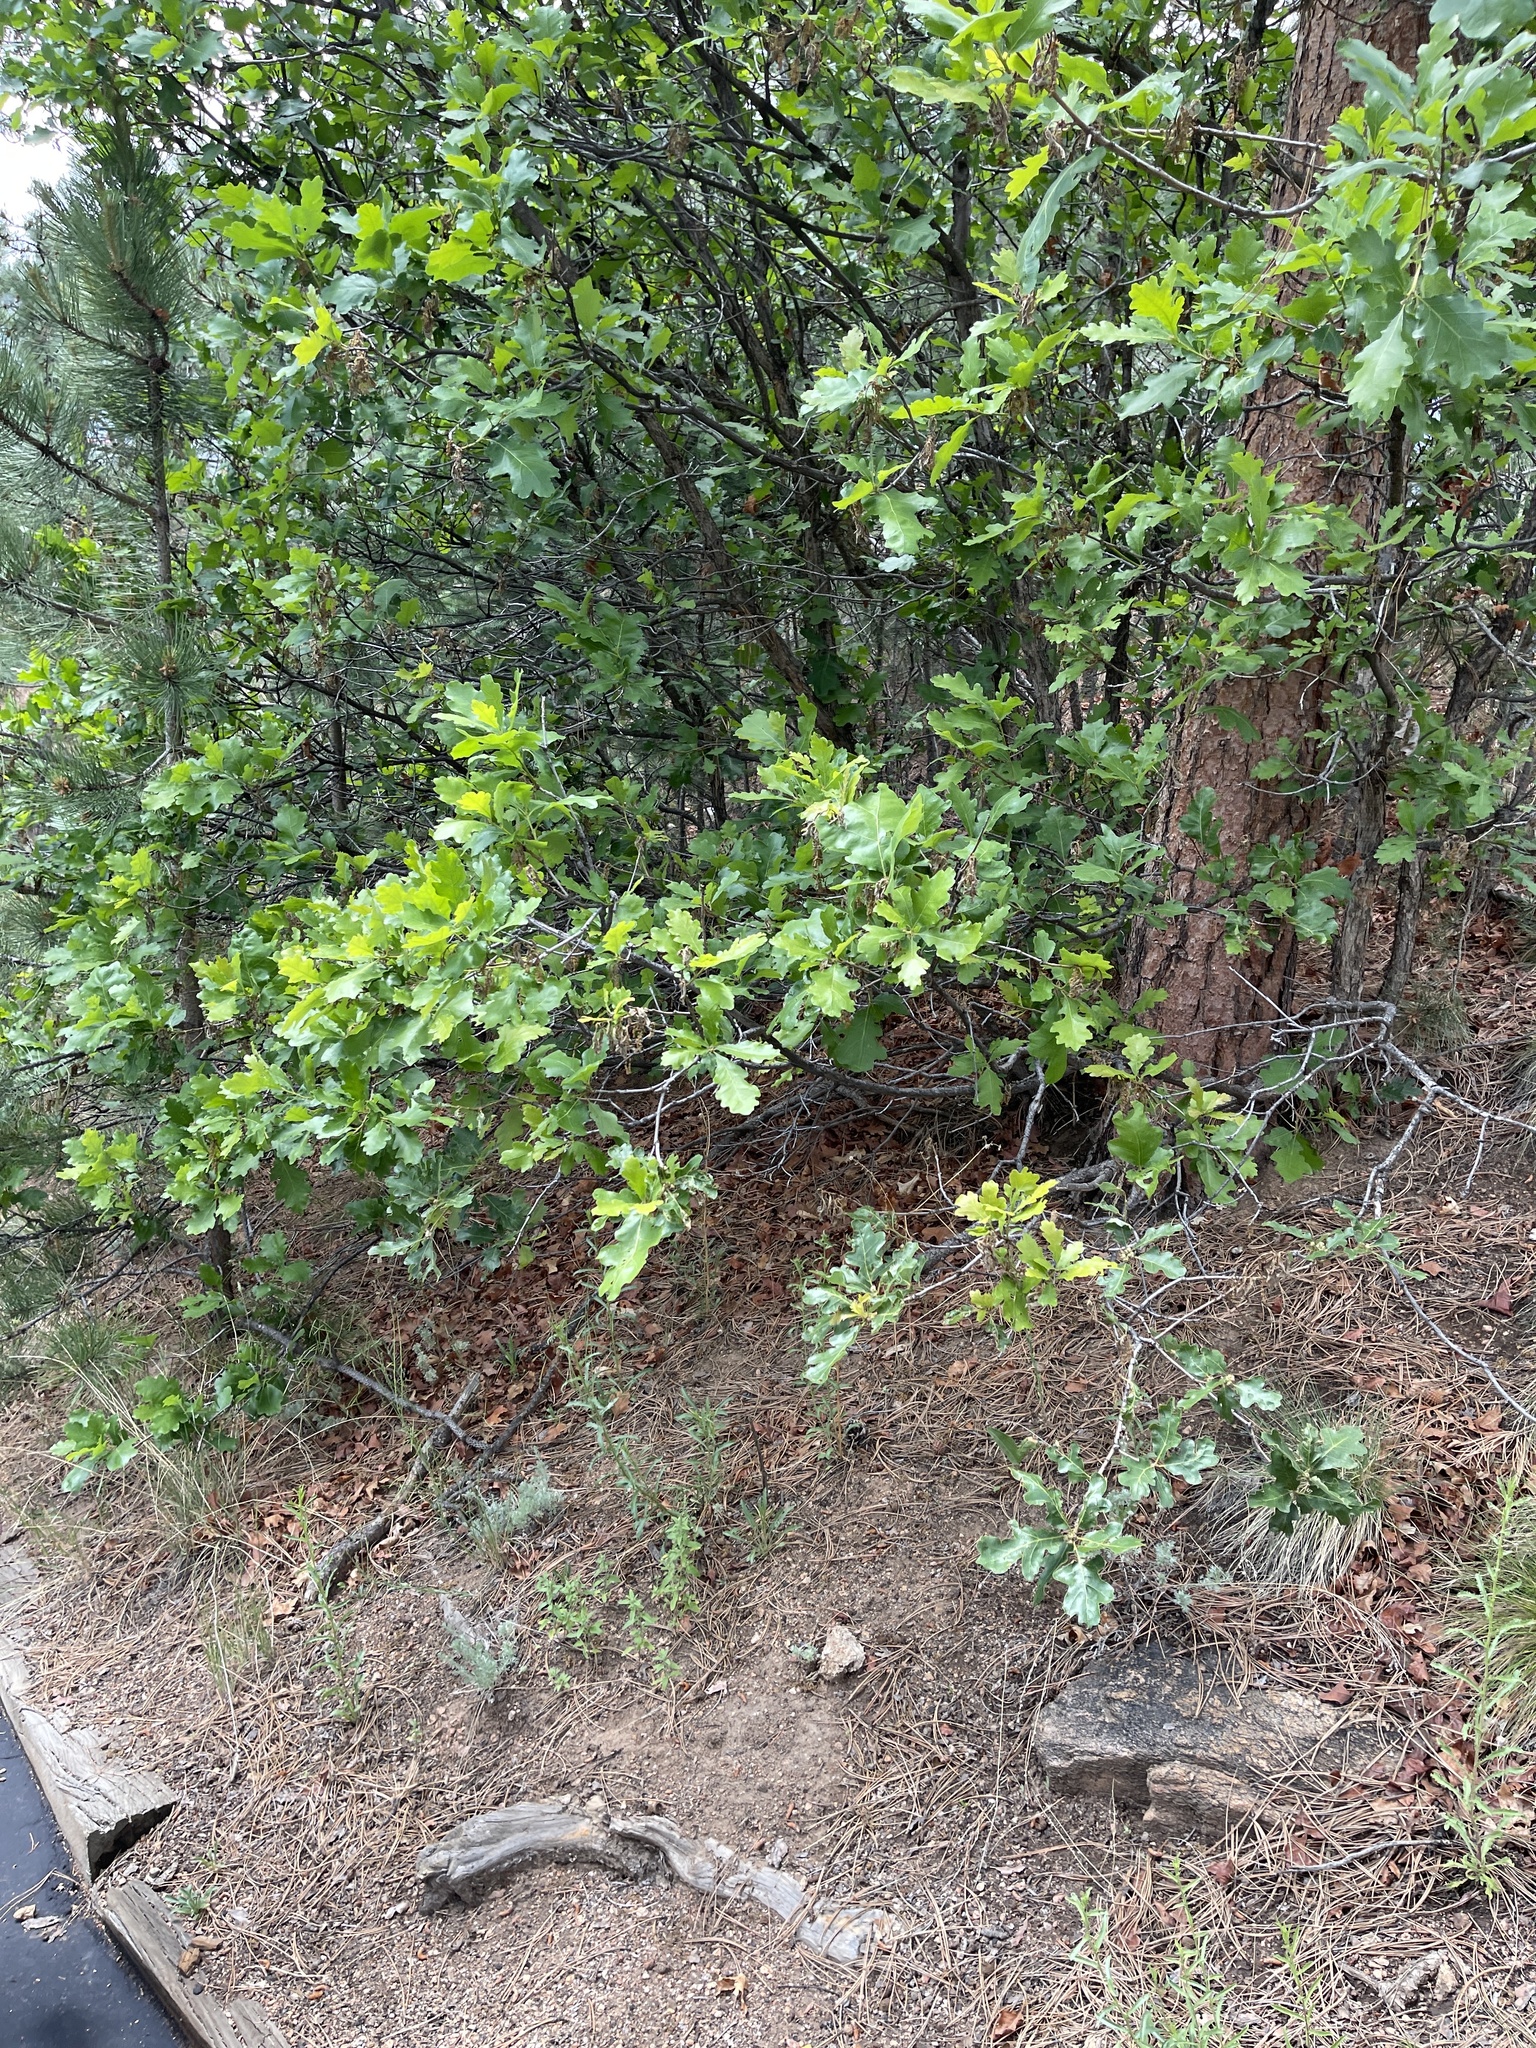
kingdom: Plantae
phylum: Tracheophyta
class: Magnoliopsida
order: Fagales
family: Fagaceae
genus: Quercus
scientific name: Quercus gambelii
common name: Gambel oak
